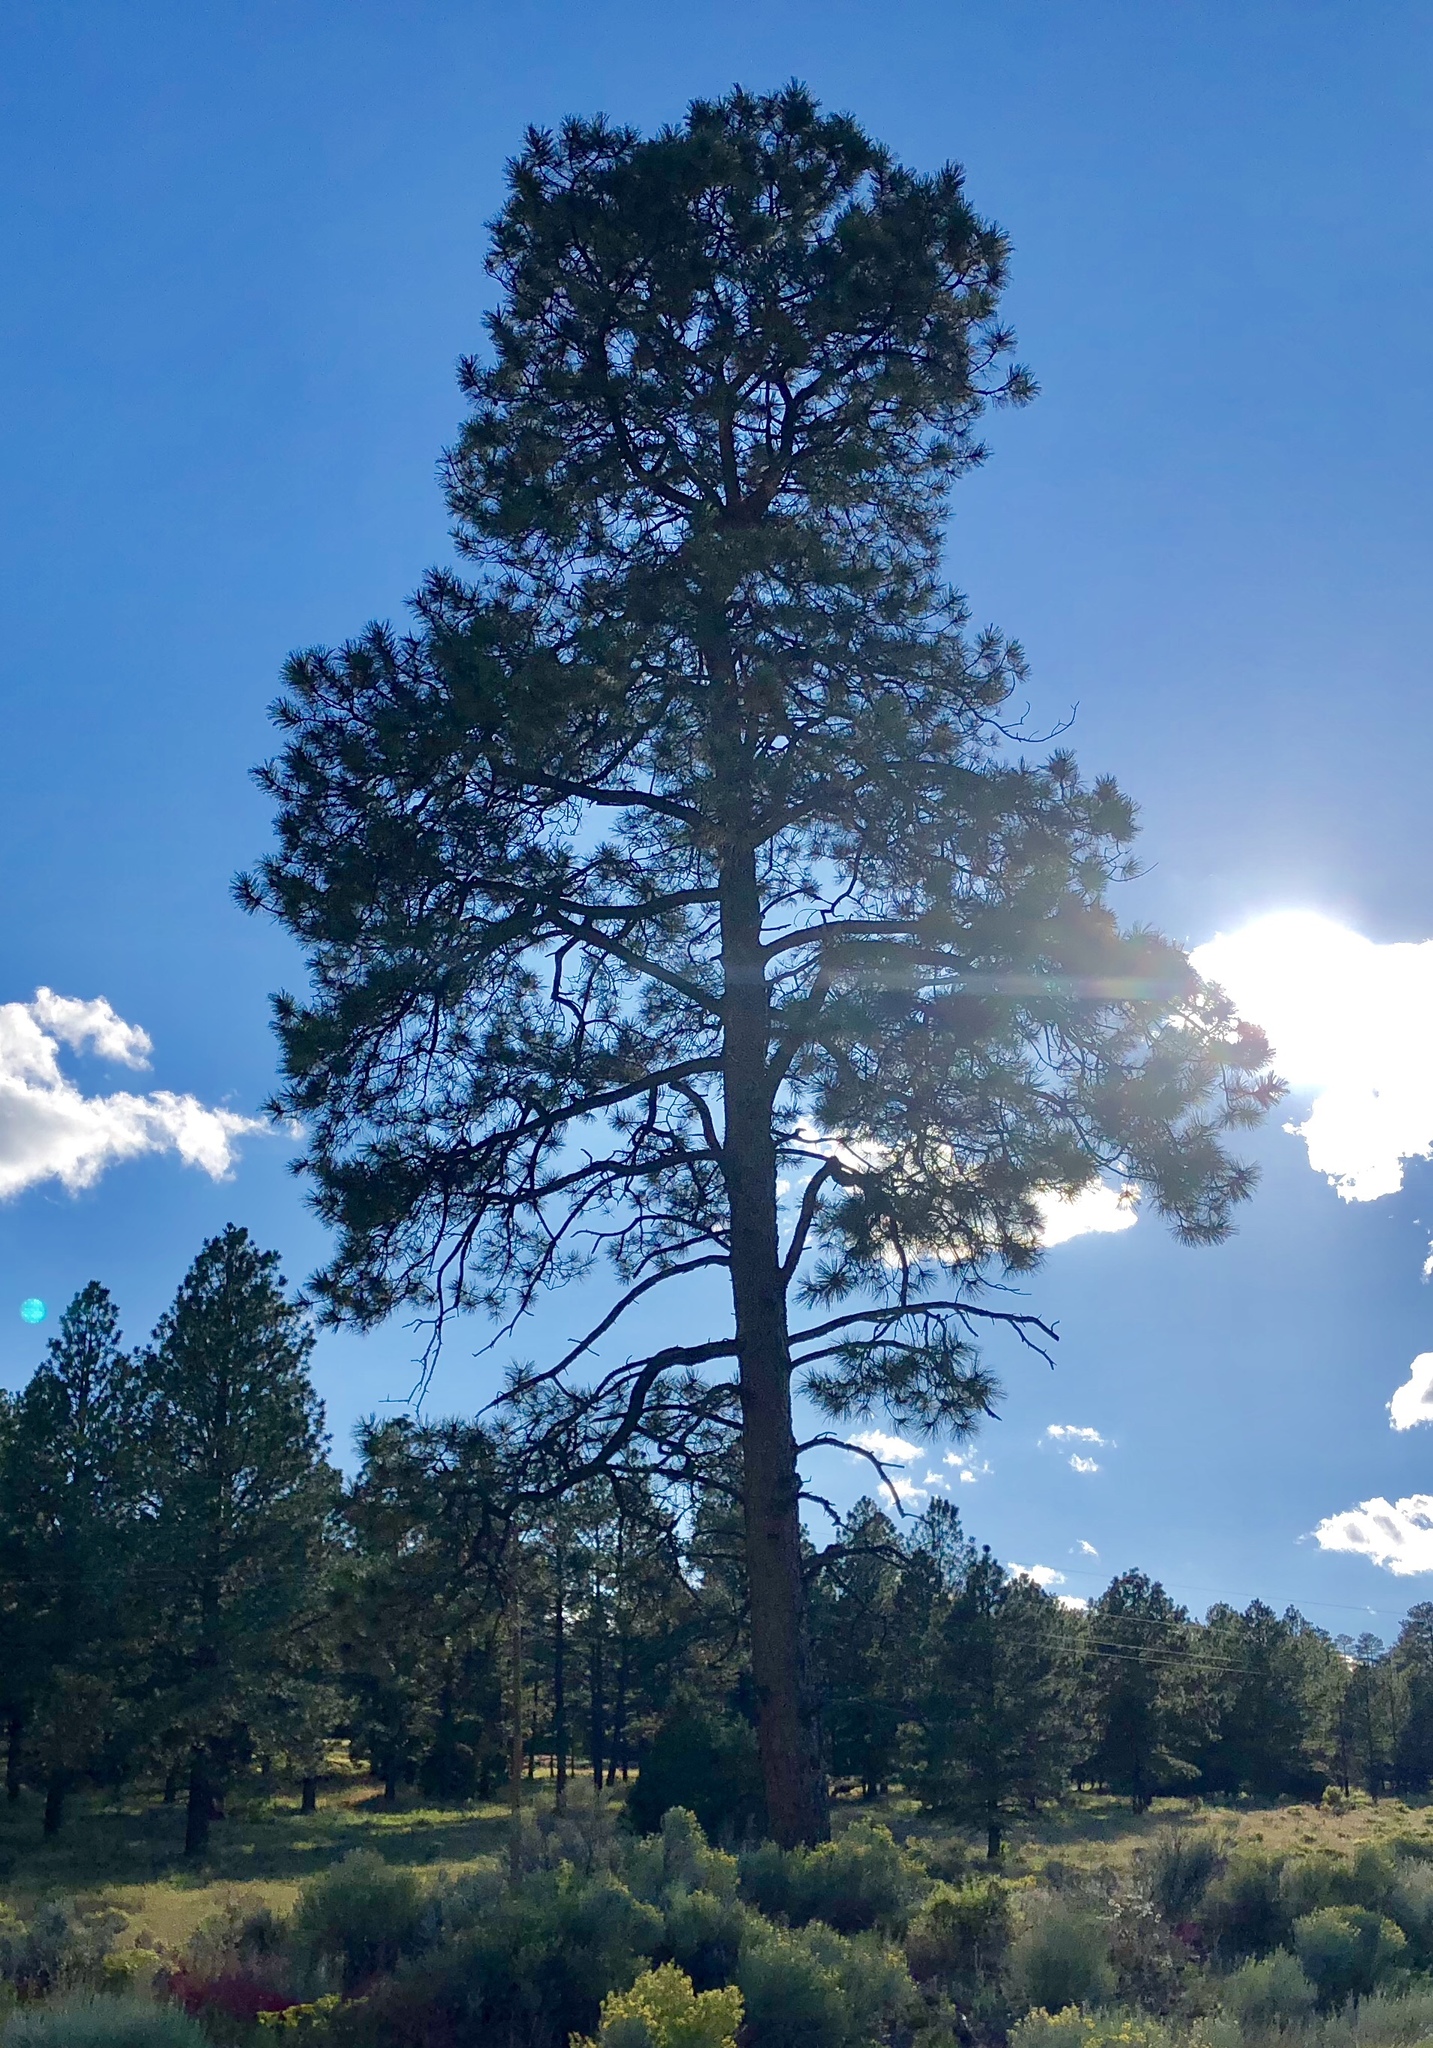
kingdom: Plantae
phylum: Tracheophyta
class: Pinopsida
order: Pinales
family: Pinaceae
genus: Pinus
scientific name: Pinus ponderosa
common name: Western yellow-pine
